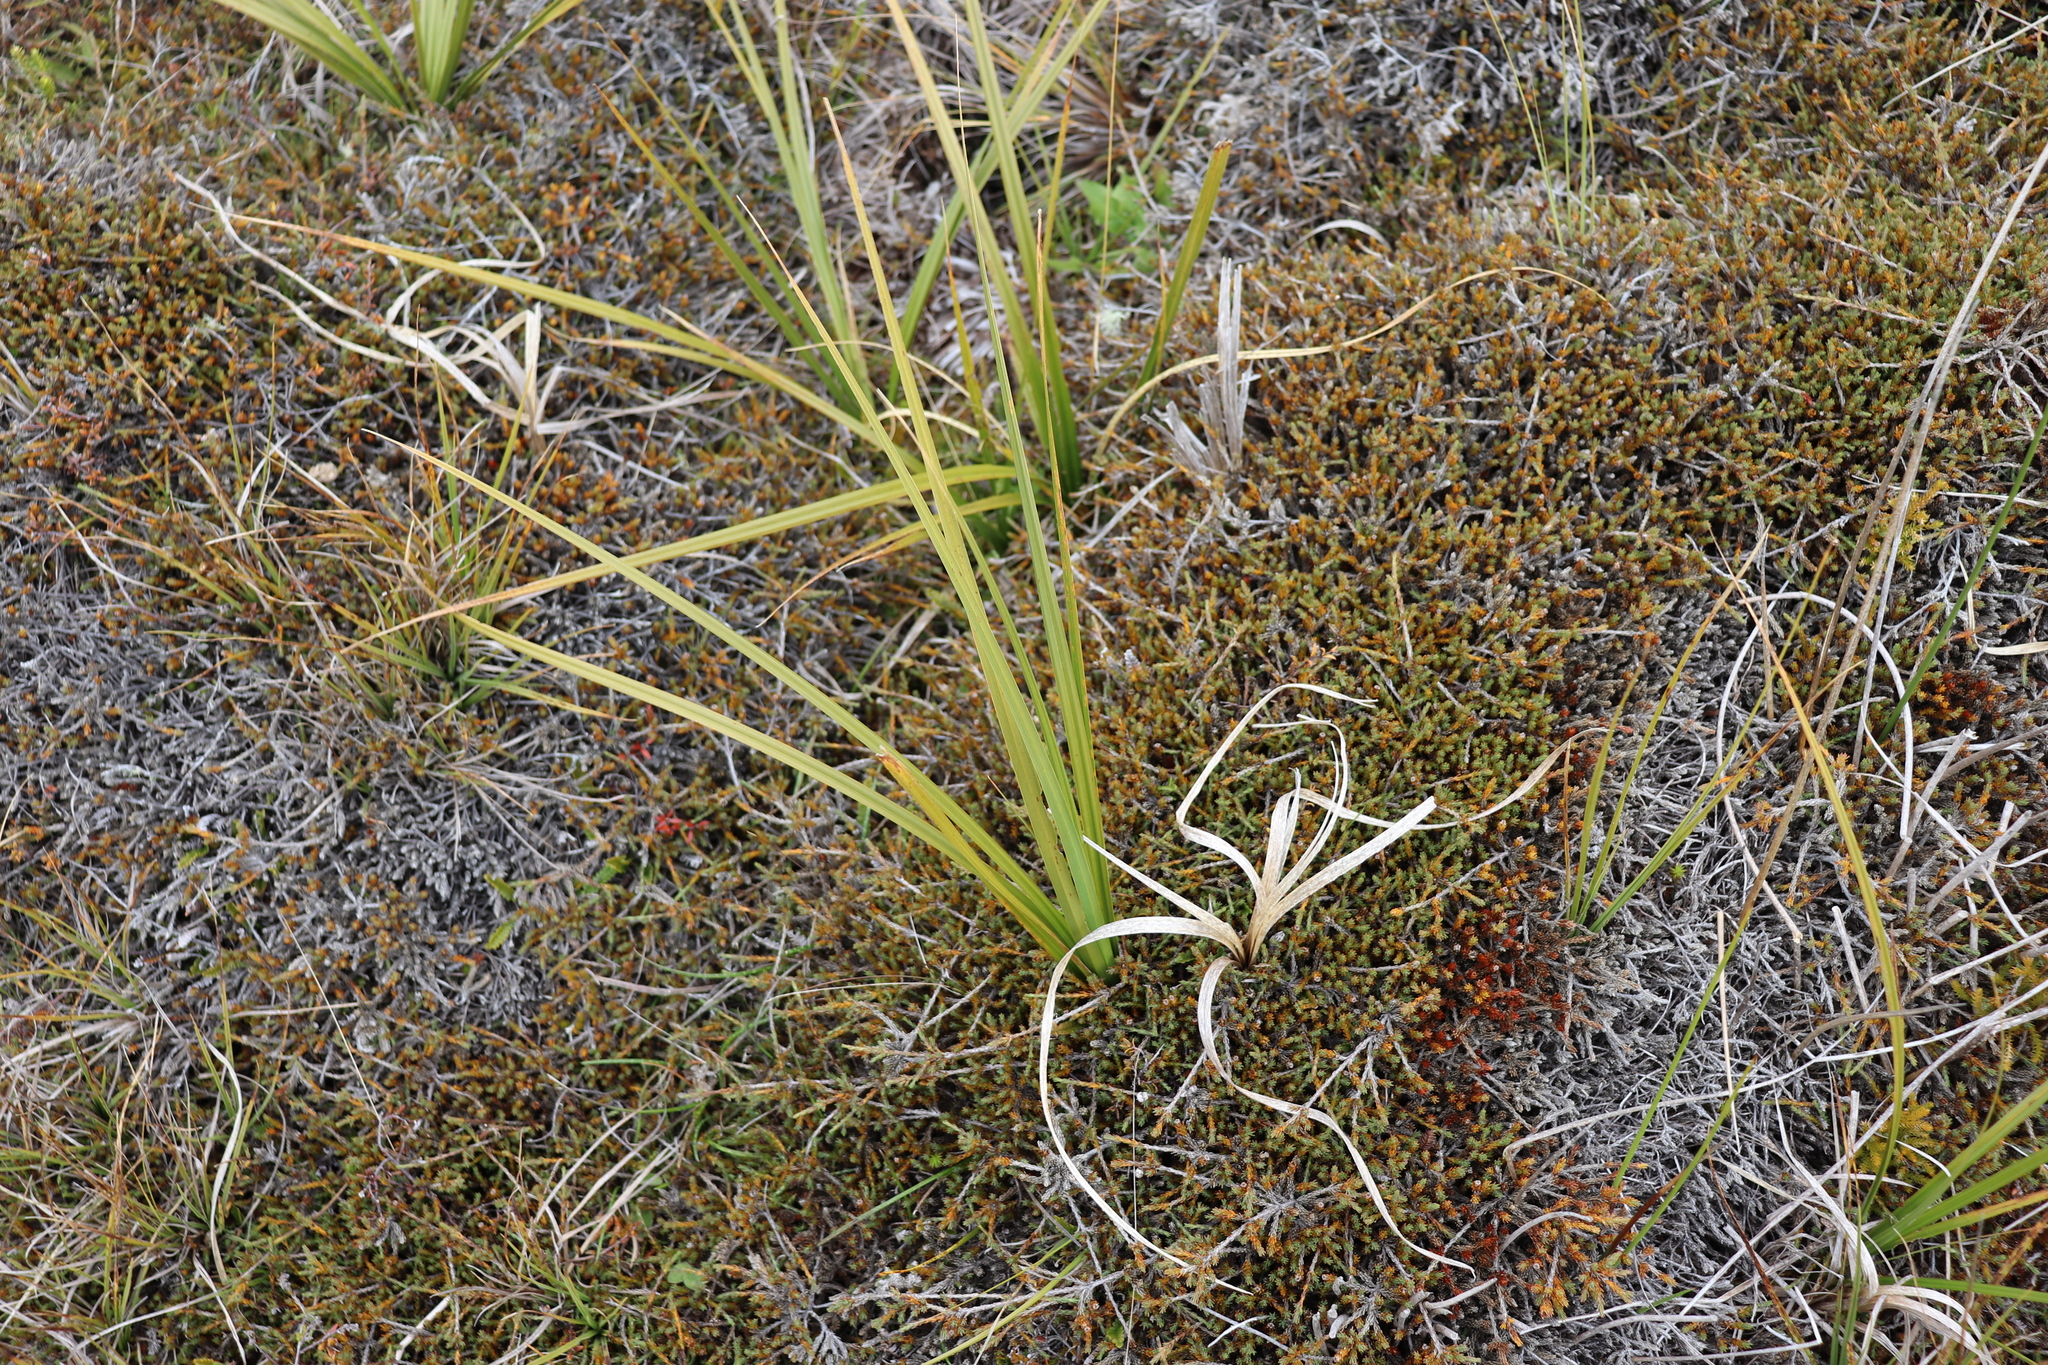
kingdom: Plantae
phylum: Tracheophyta
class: Liliopsida
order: Poales
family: Cyperaceae
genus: Carex
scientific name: Carex coriacea
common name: Rautahi
